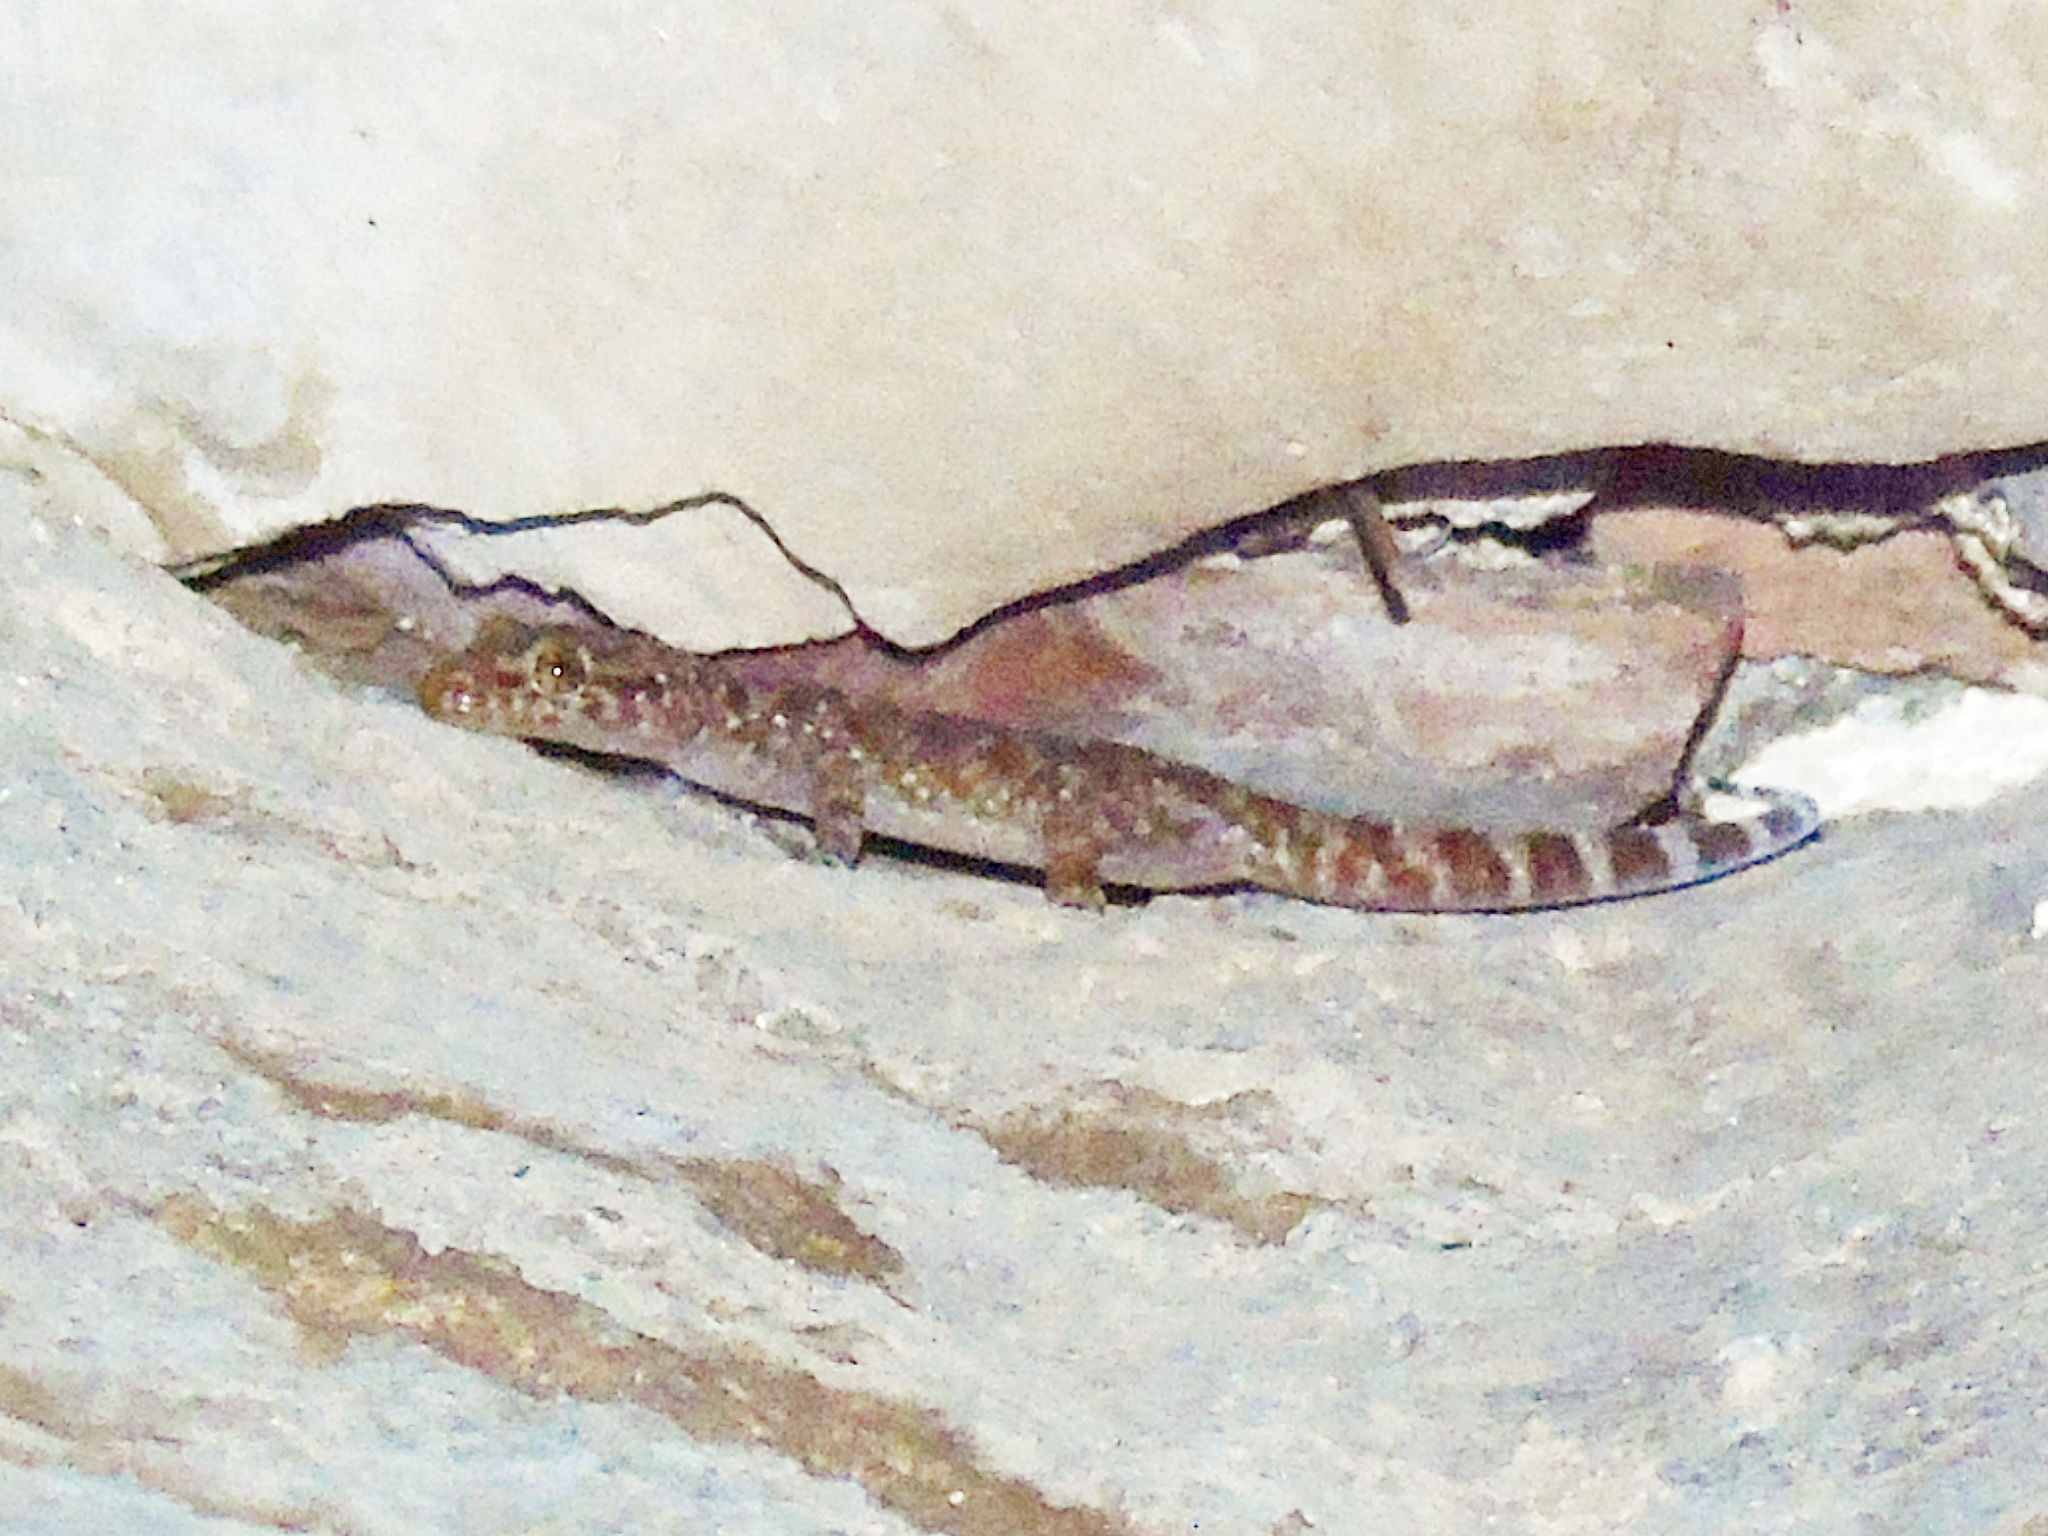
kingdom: Animalia
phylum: Chordata
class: Squamata
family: Gekkonidae
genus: Hemidactylus
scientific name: Hemidactylus turcicus
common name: Turkish gecko
